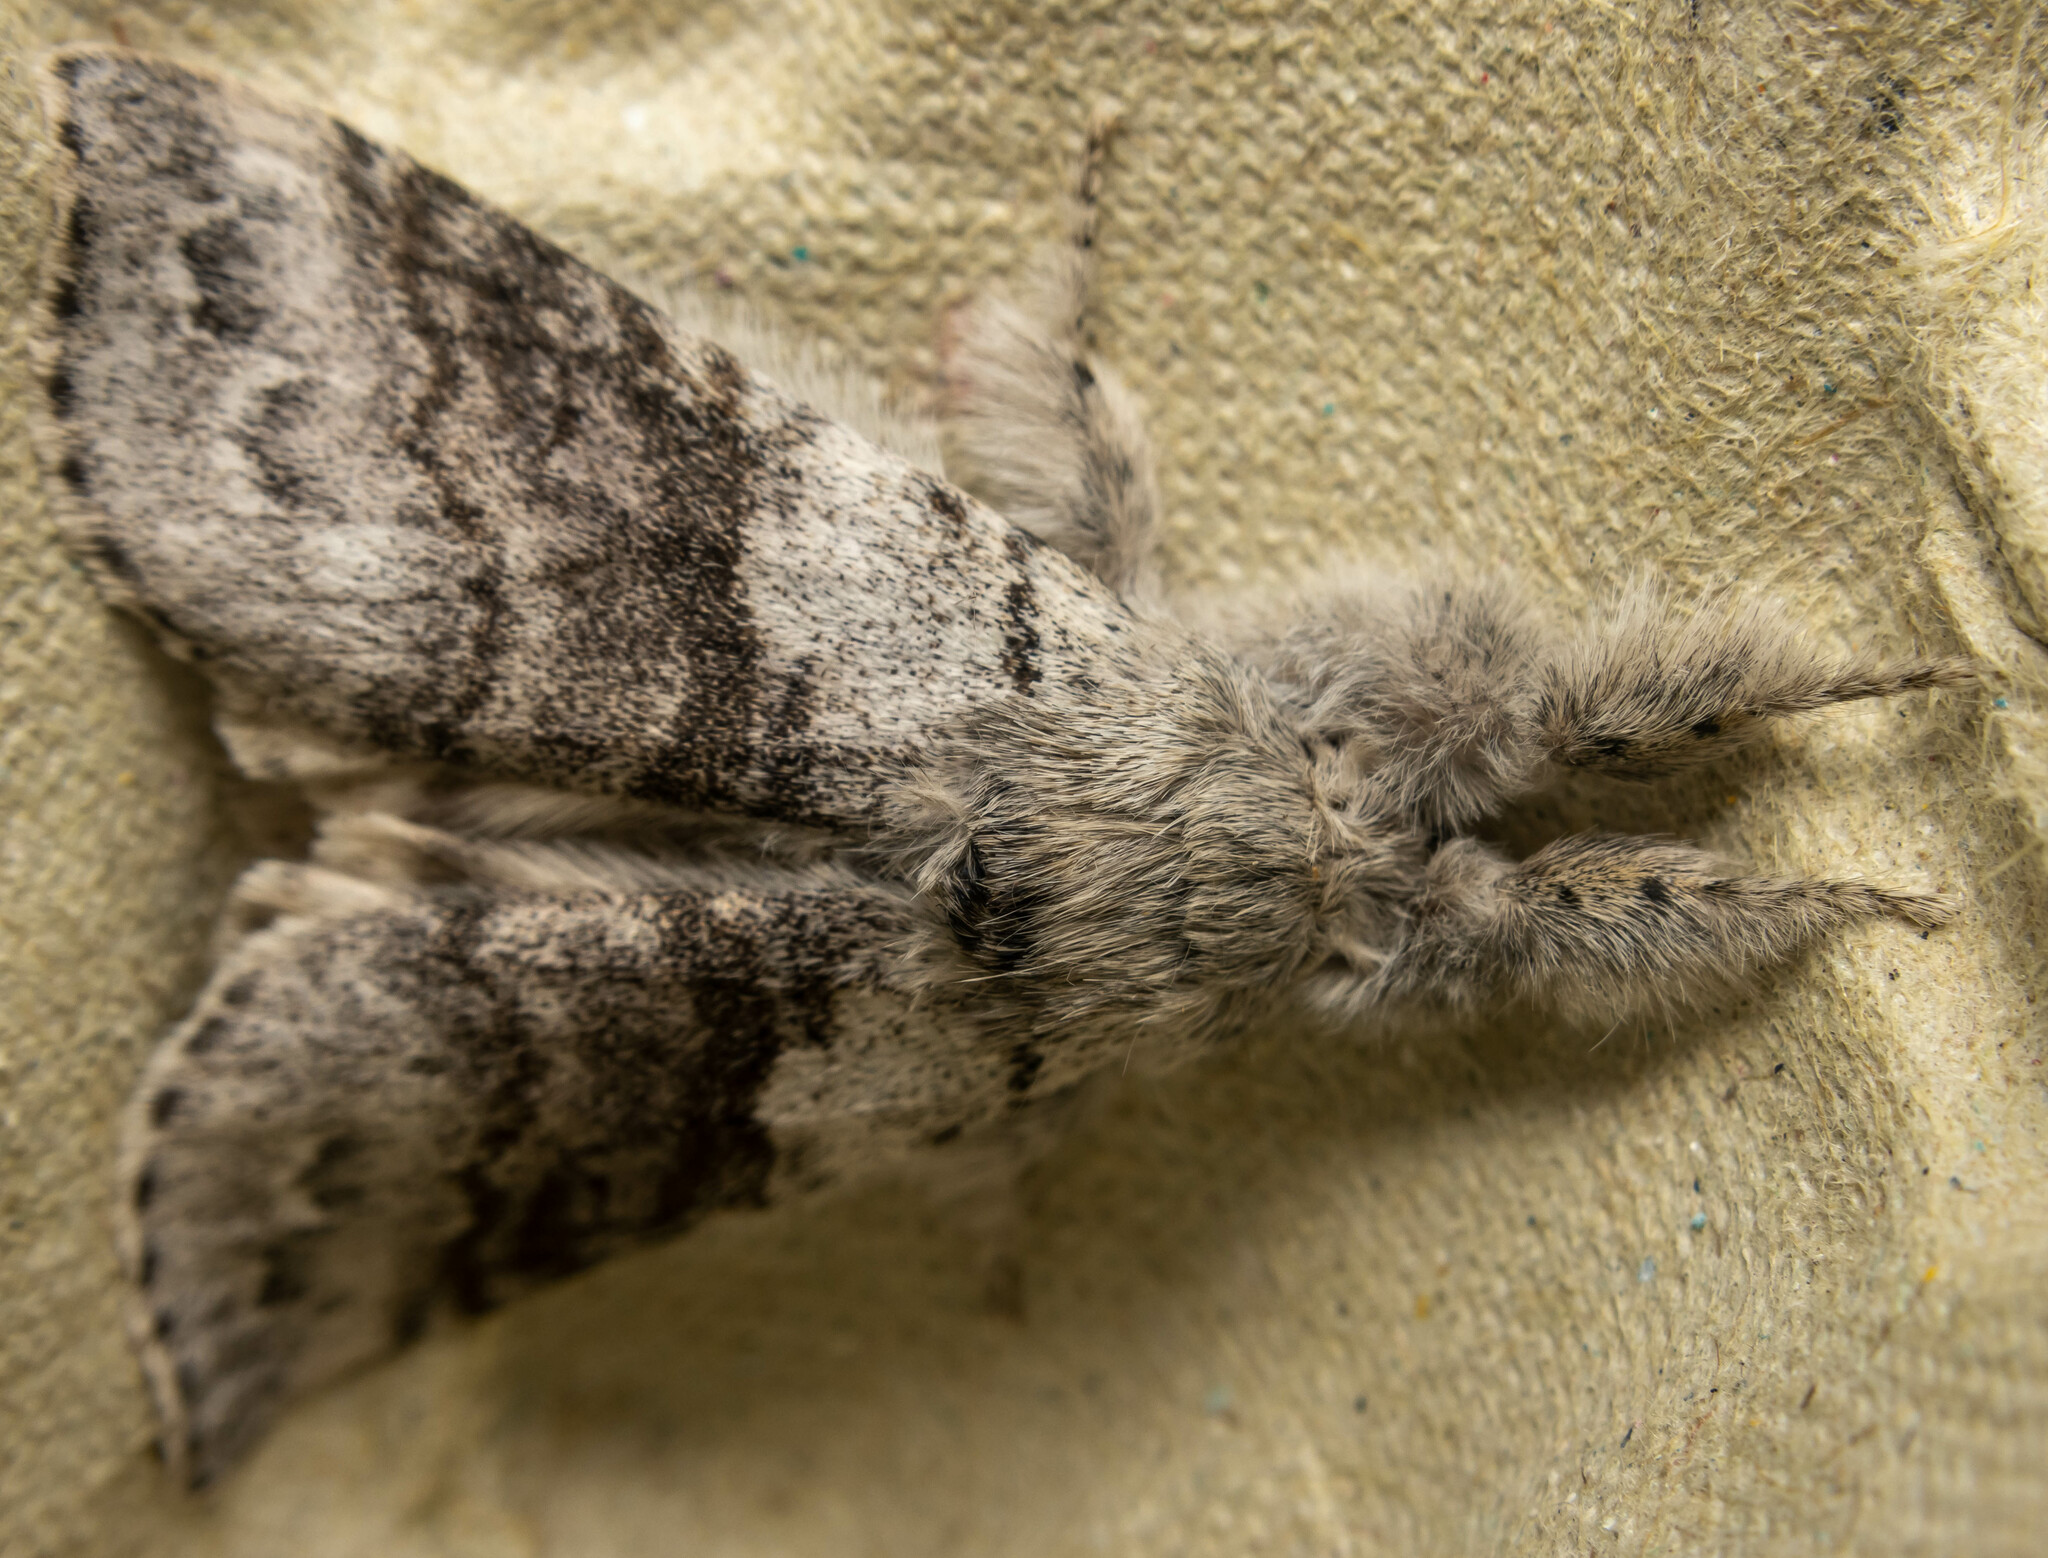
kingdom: Animalia
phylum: Arthropoda
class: Insecta
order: Lepidoptera
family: Erebidae
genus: Calliteara
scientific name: Calliteara pudibunda
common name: Pale tussock
